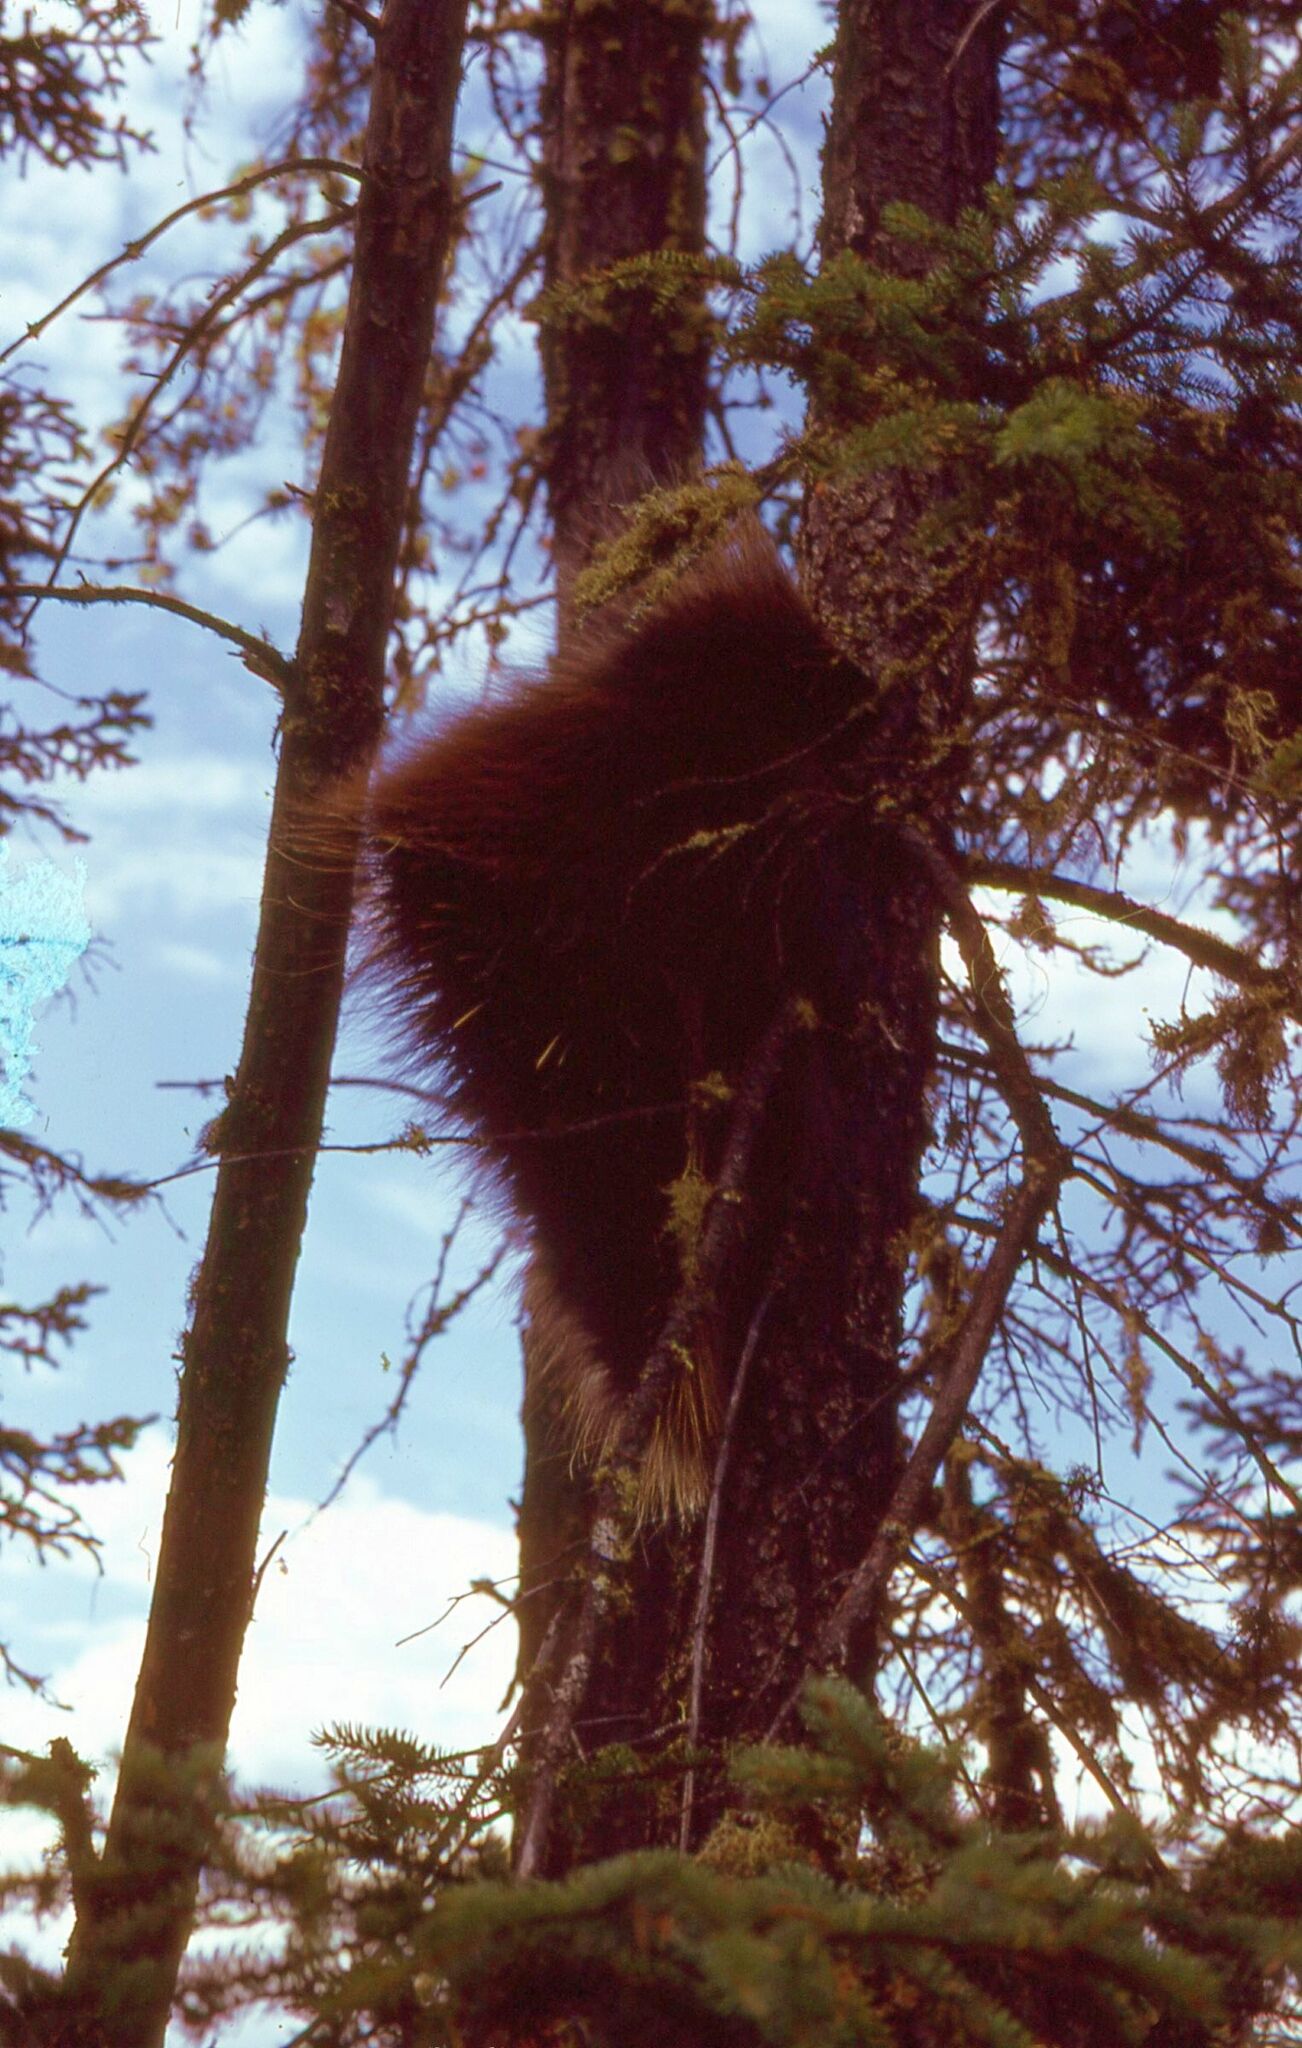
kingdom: Animalia
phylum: Chordata
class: Mammalia
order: Rodentia
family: Erethizontidae
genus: Erethizon
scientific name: Erethizon dorsatus
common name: North american porcupine
